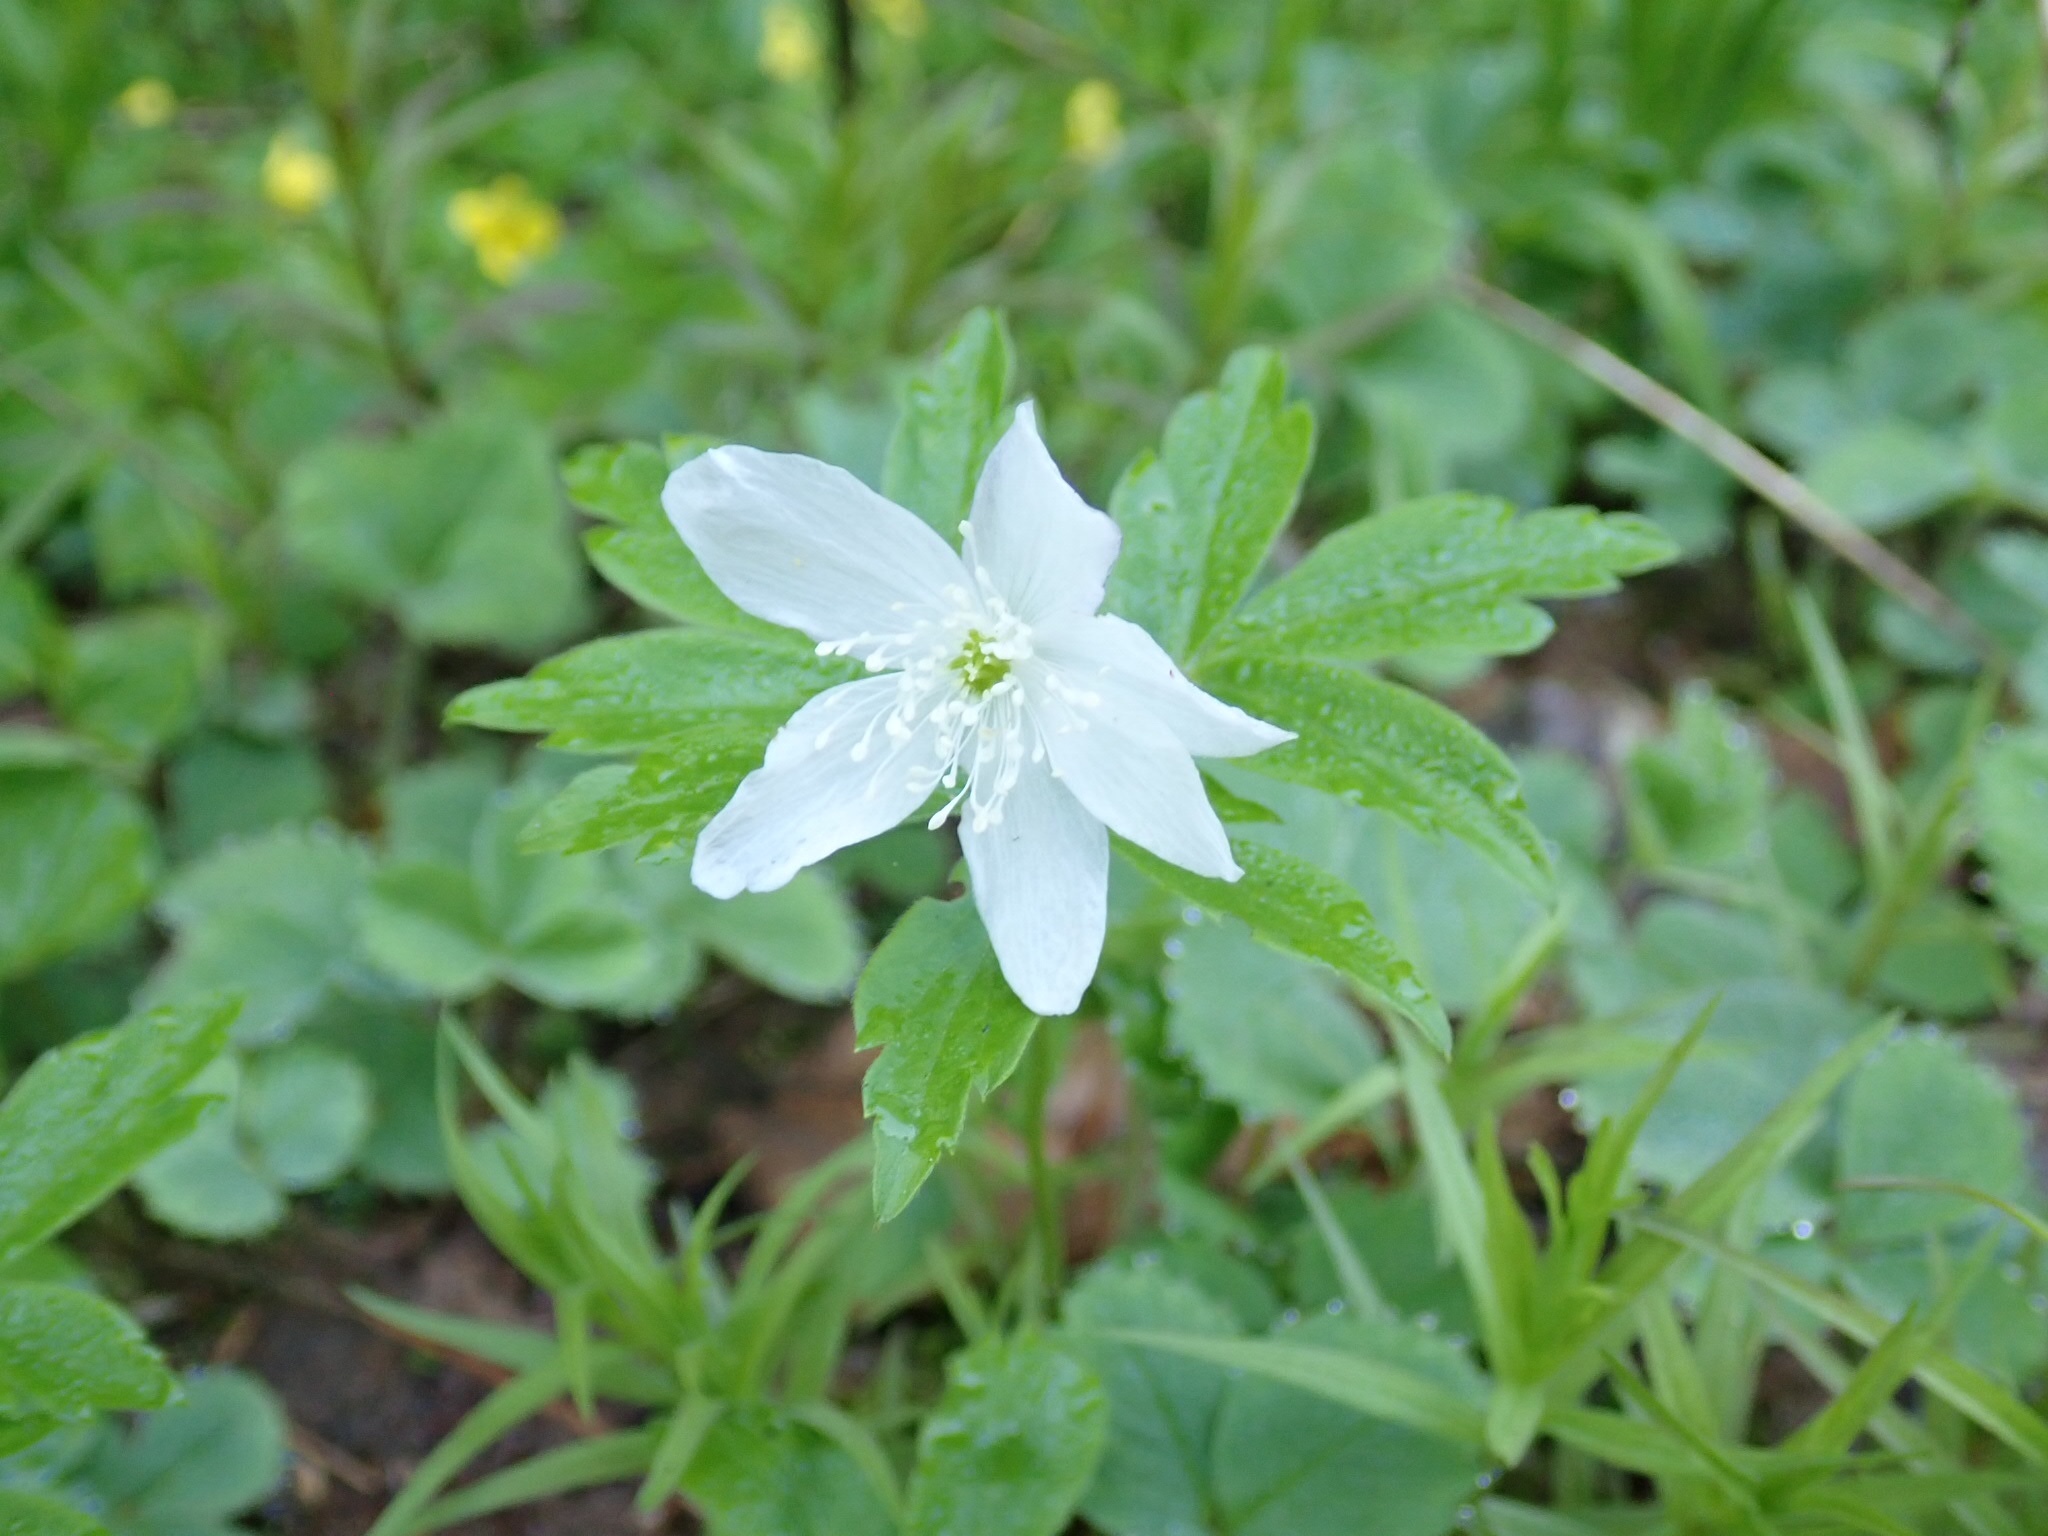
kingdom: Plantae
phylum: Tracheophyta
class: Magnoliopsida
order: Ranunculales
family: Ranunculaceae
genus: Anemone
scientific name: Anemone oregana
